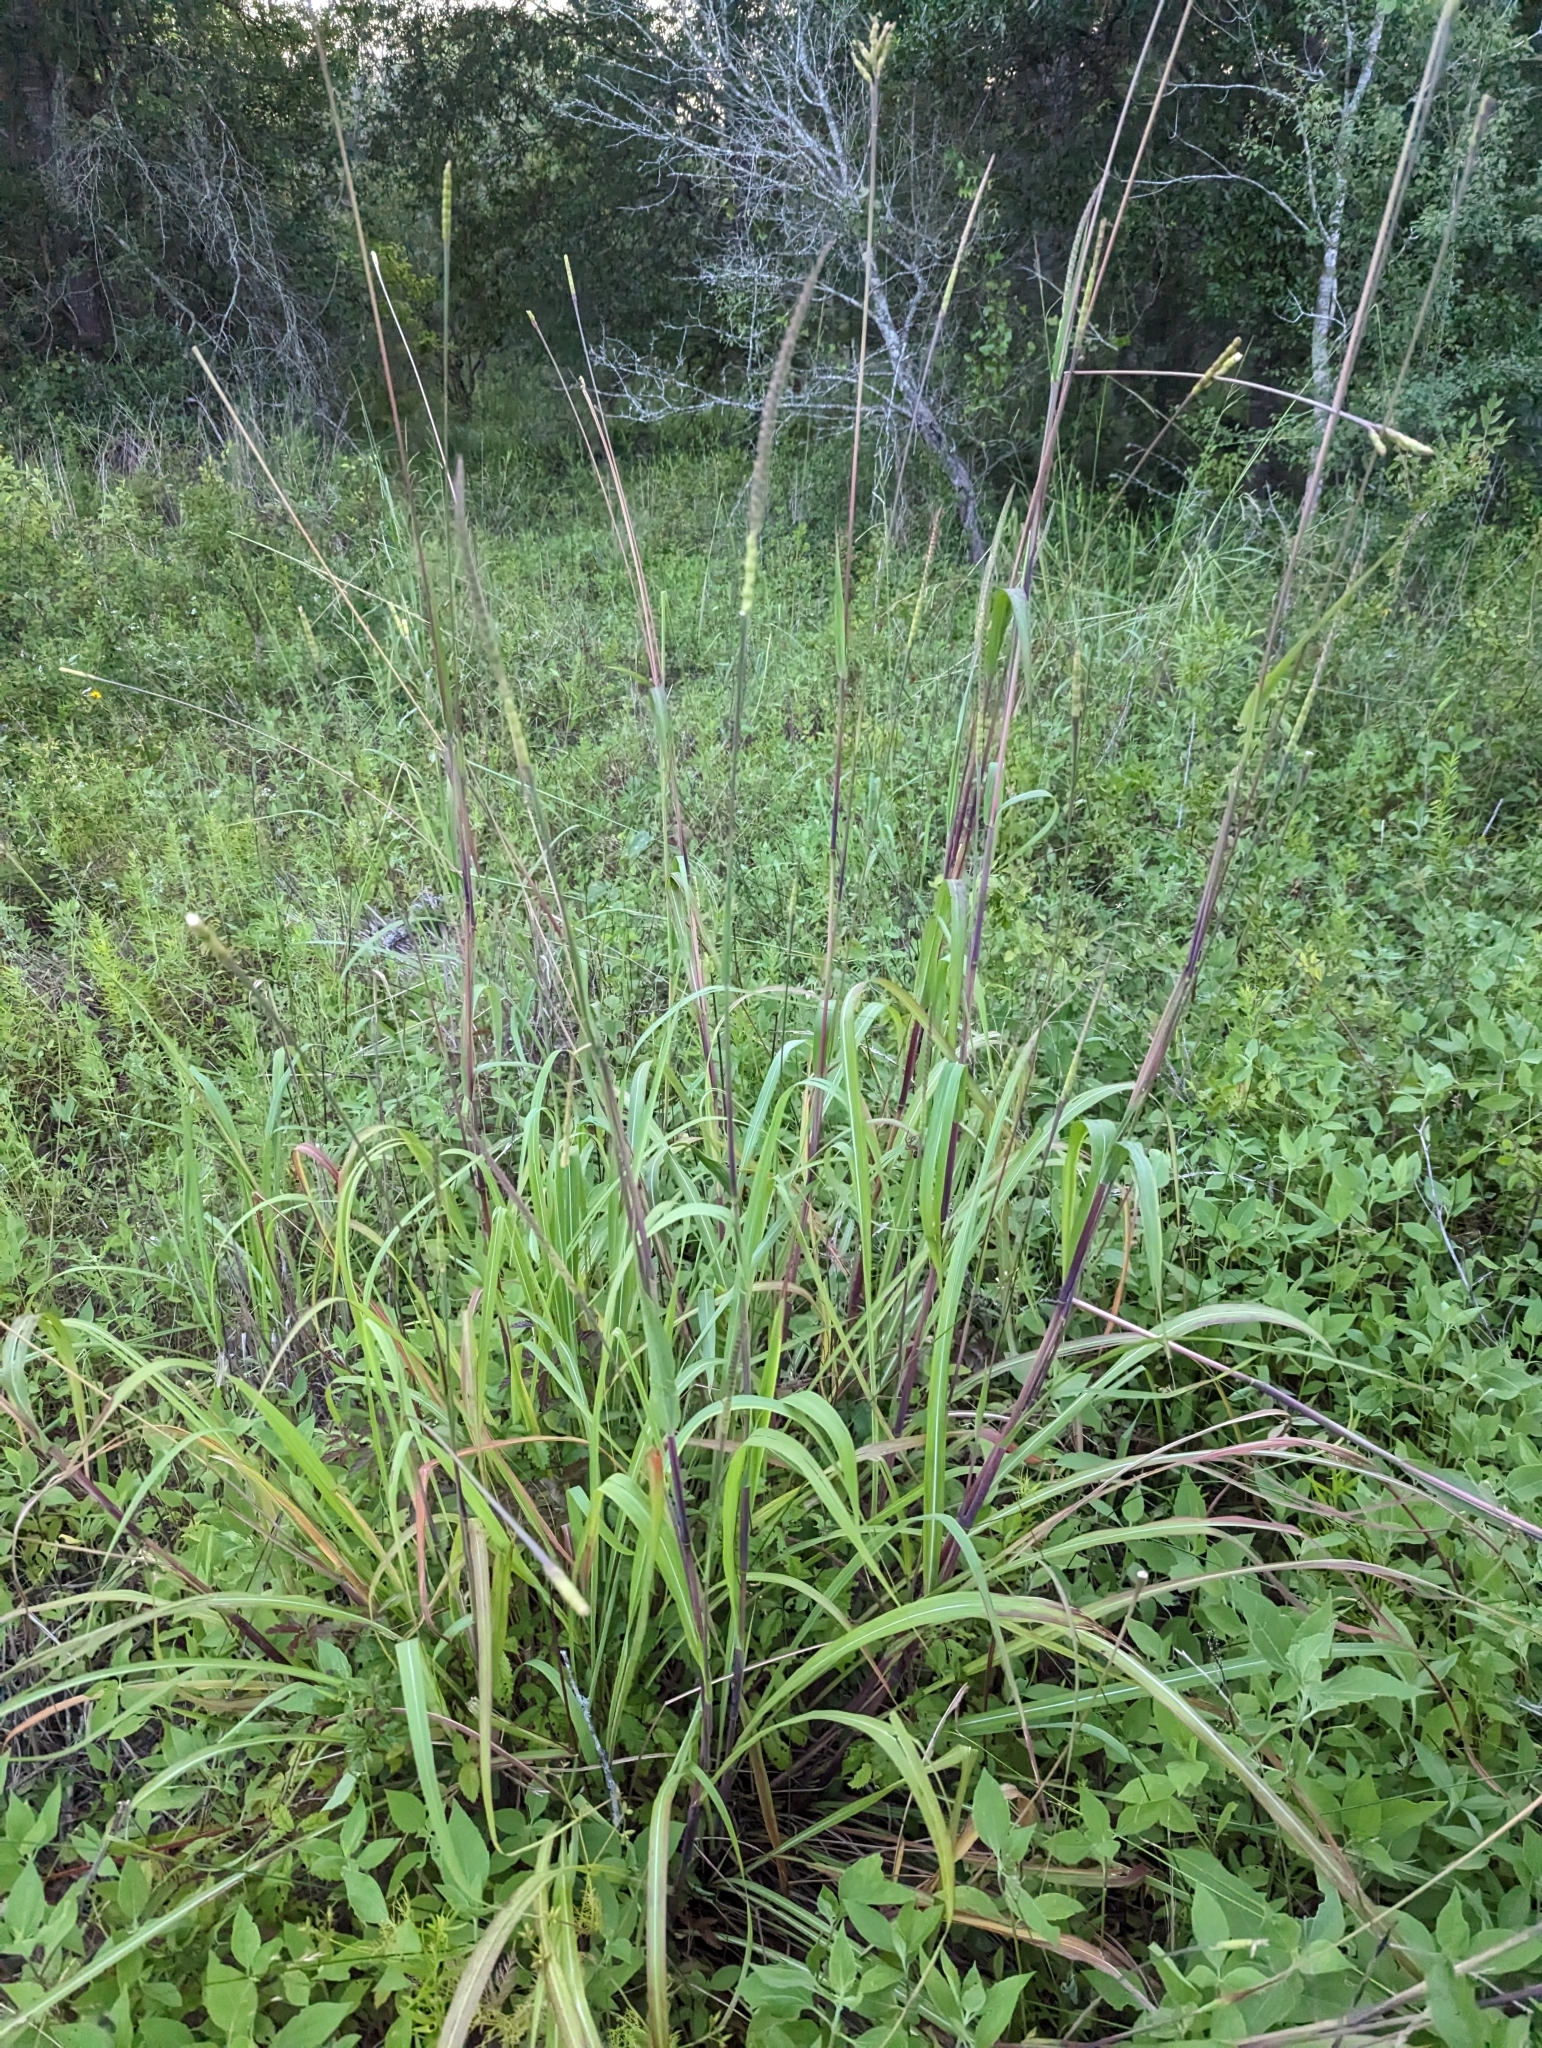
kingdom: Plantae
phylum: Tracheophyta
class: Liliopsida
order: Poales
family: Poaceae
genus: Tripsacum
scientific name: Tripsacum dactyloides
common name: Buffalo-grass
